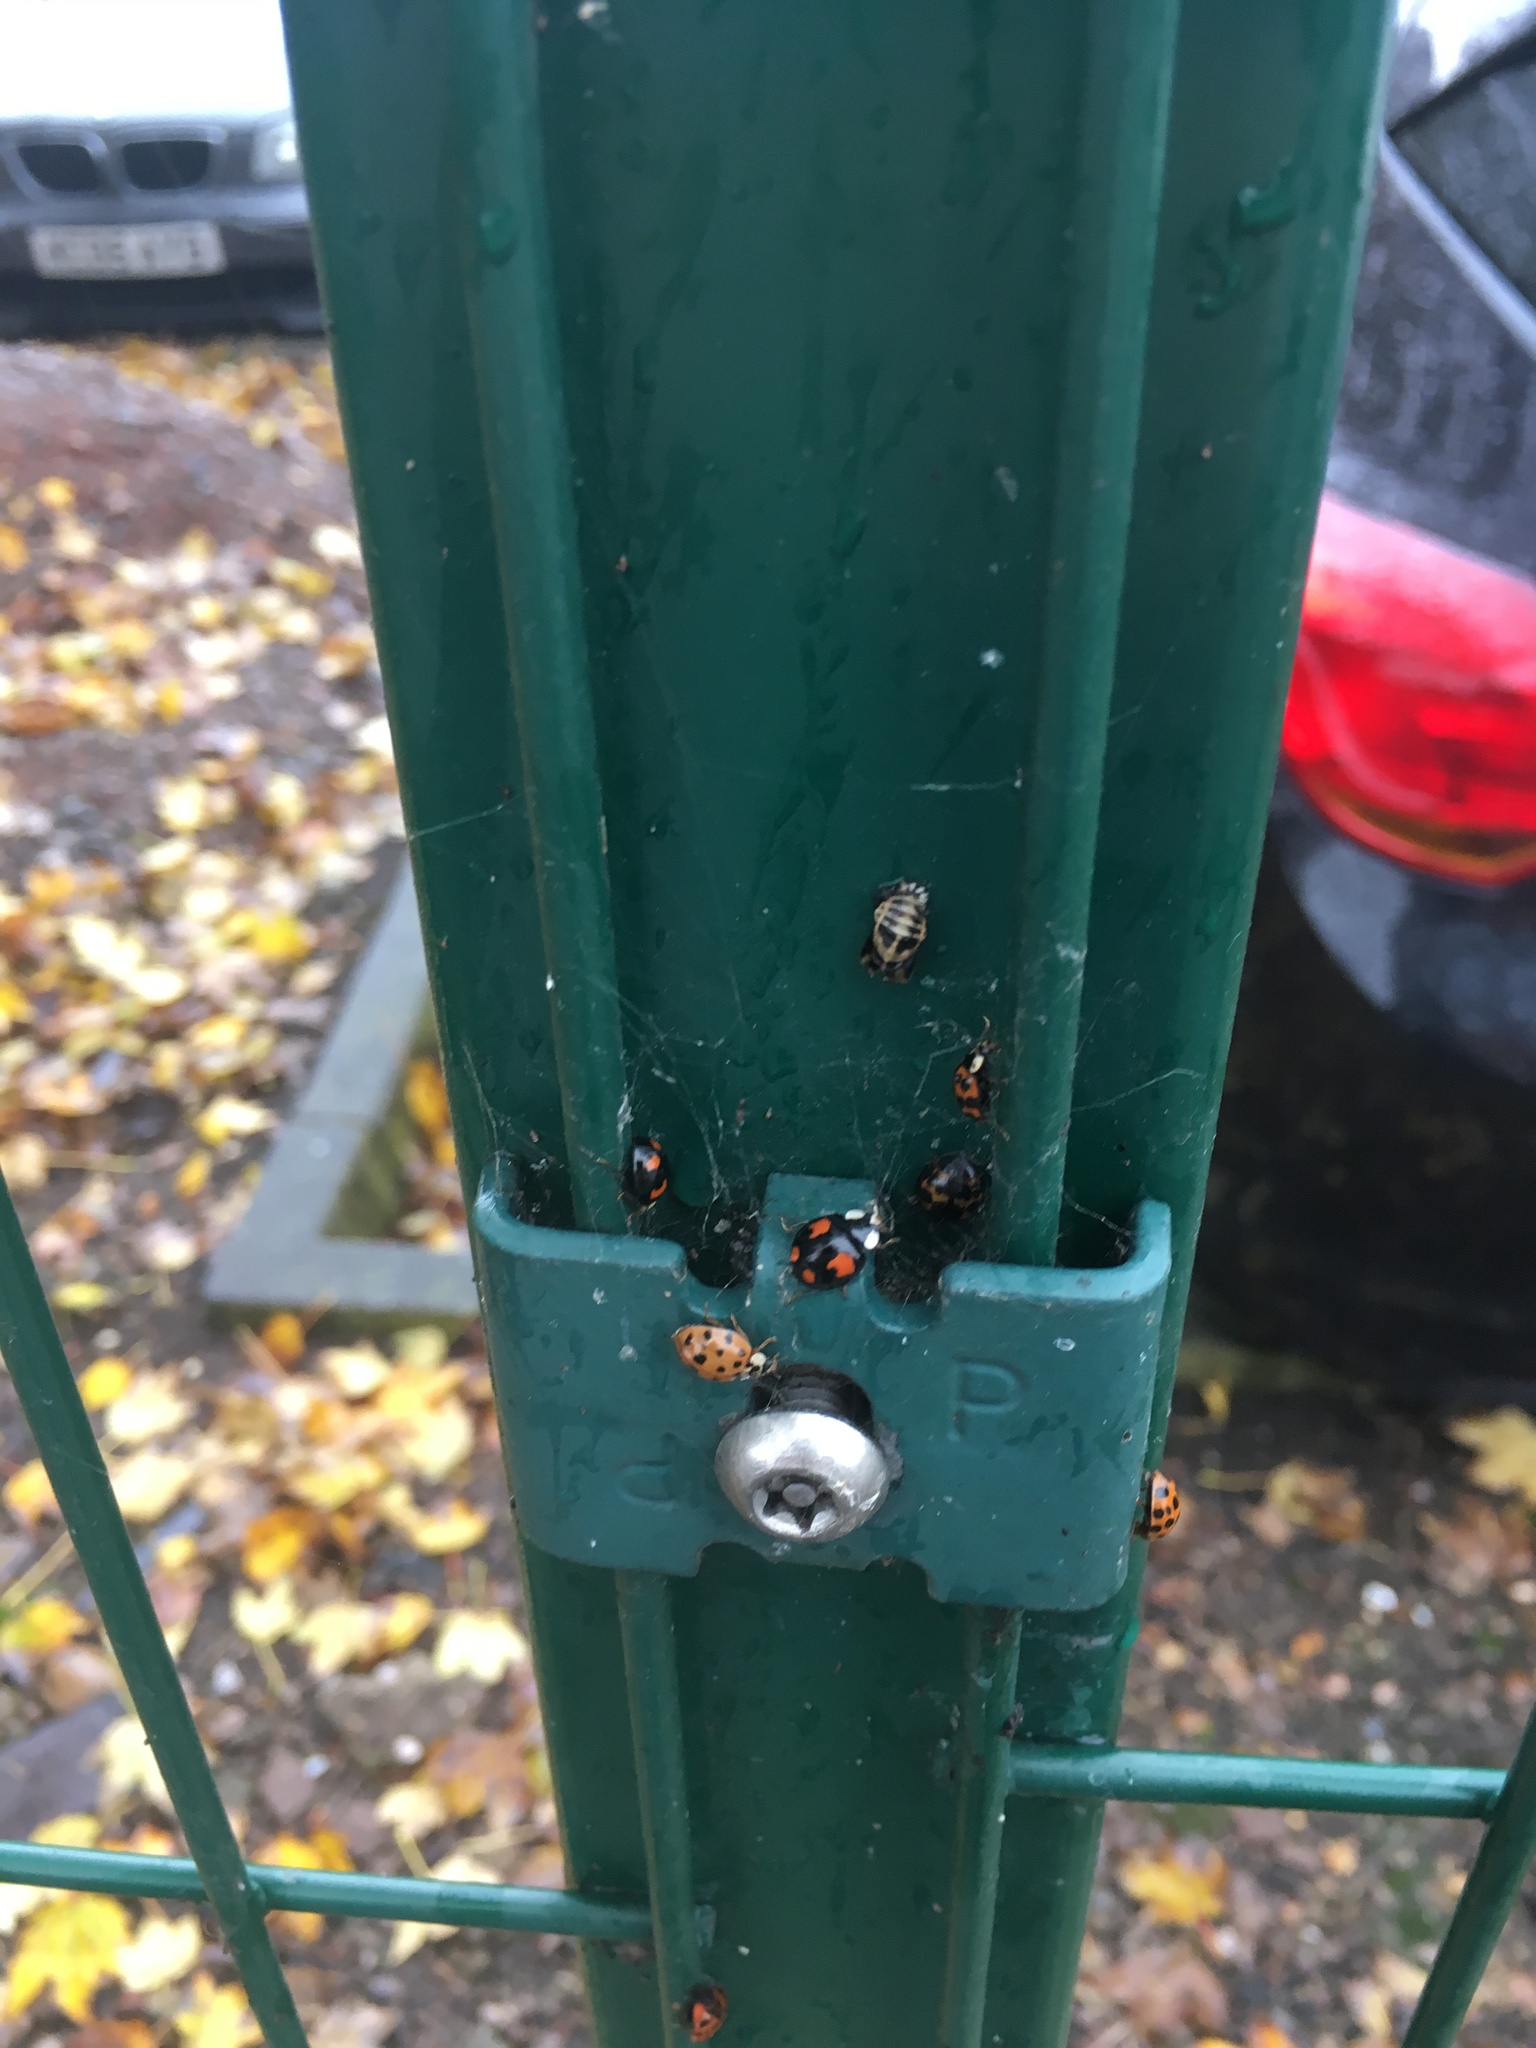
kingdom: Animalia
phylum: Arthropoda
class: Insecta
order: Coleoptera
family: Coccinellidae
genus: Harmonia
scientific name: Harmonia axyridis
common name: Harlequin ladybird
